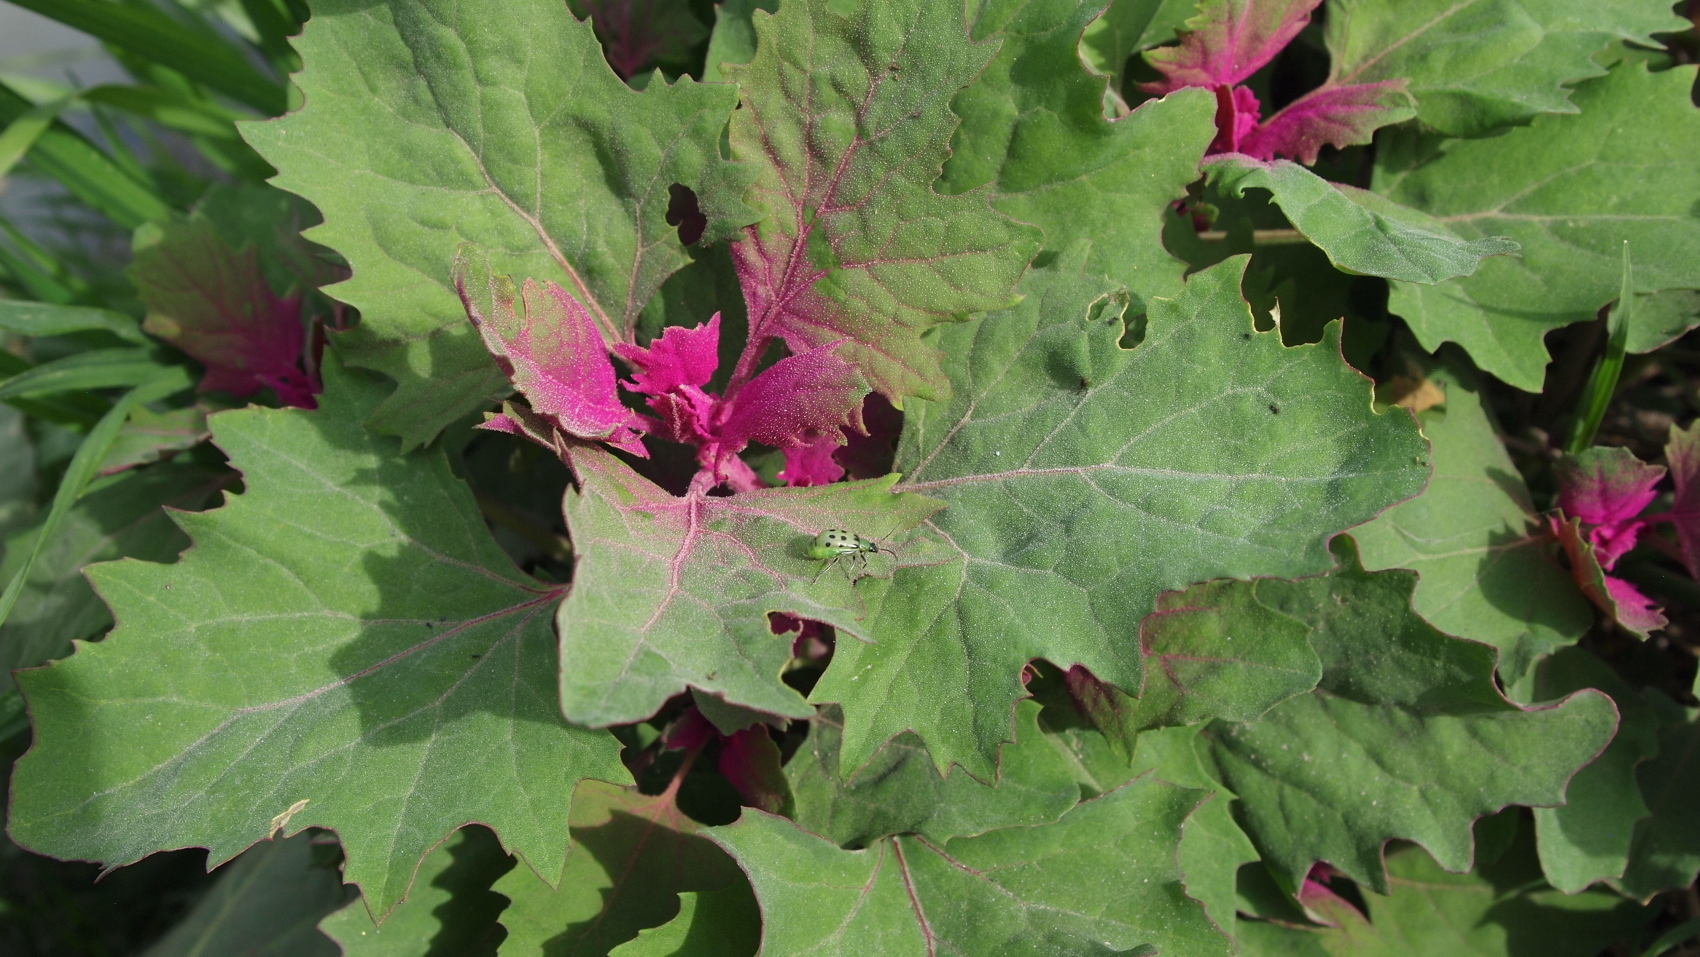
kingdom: Animalia
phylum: Arthropoda
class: Insecta
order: Coleoptera
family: Chrysomelidae
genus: Diabrotica
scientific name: Diabrotica undecimpunctata
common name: Spotted cucumber beetle
